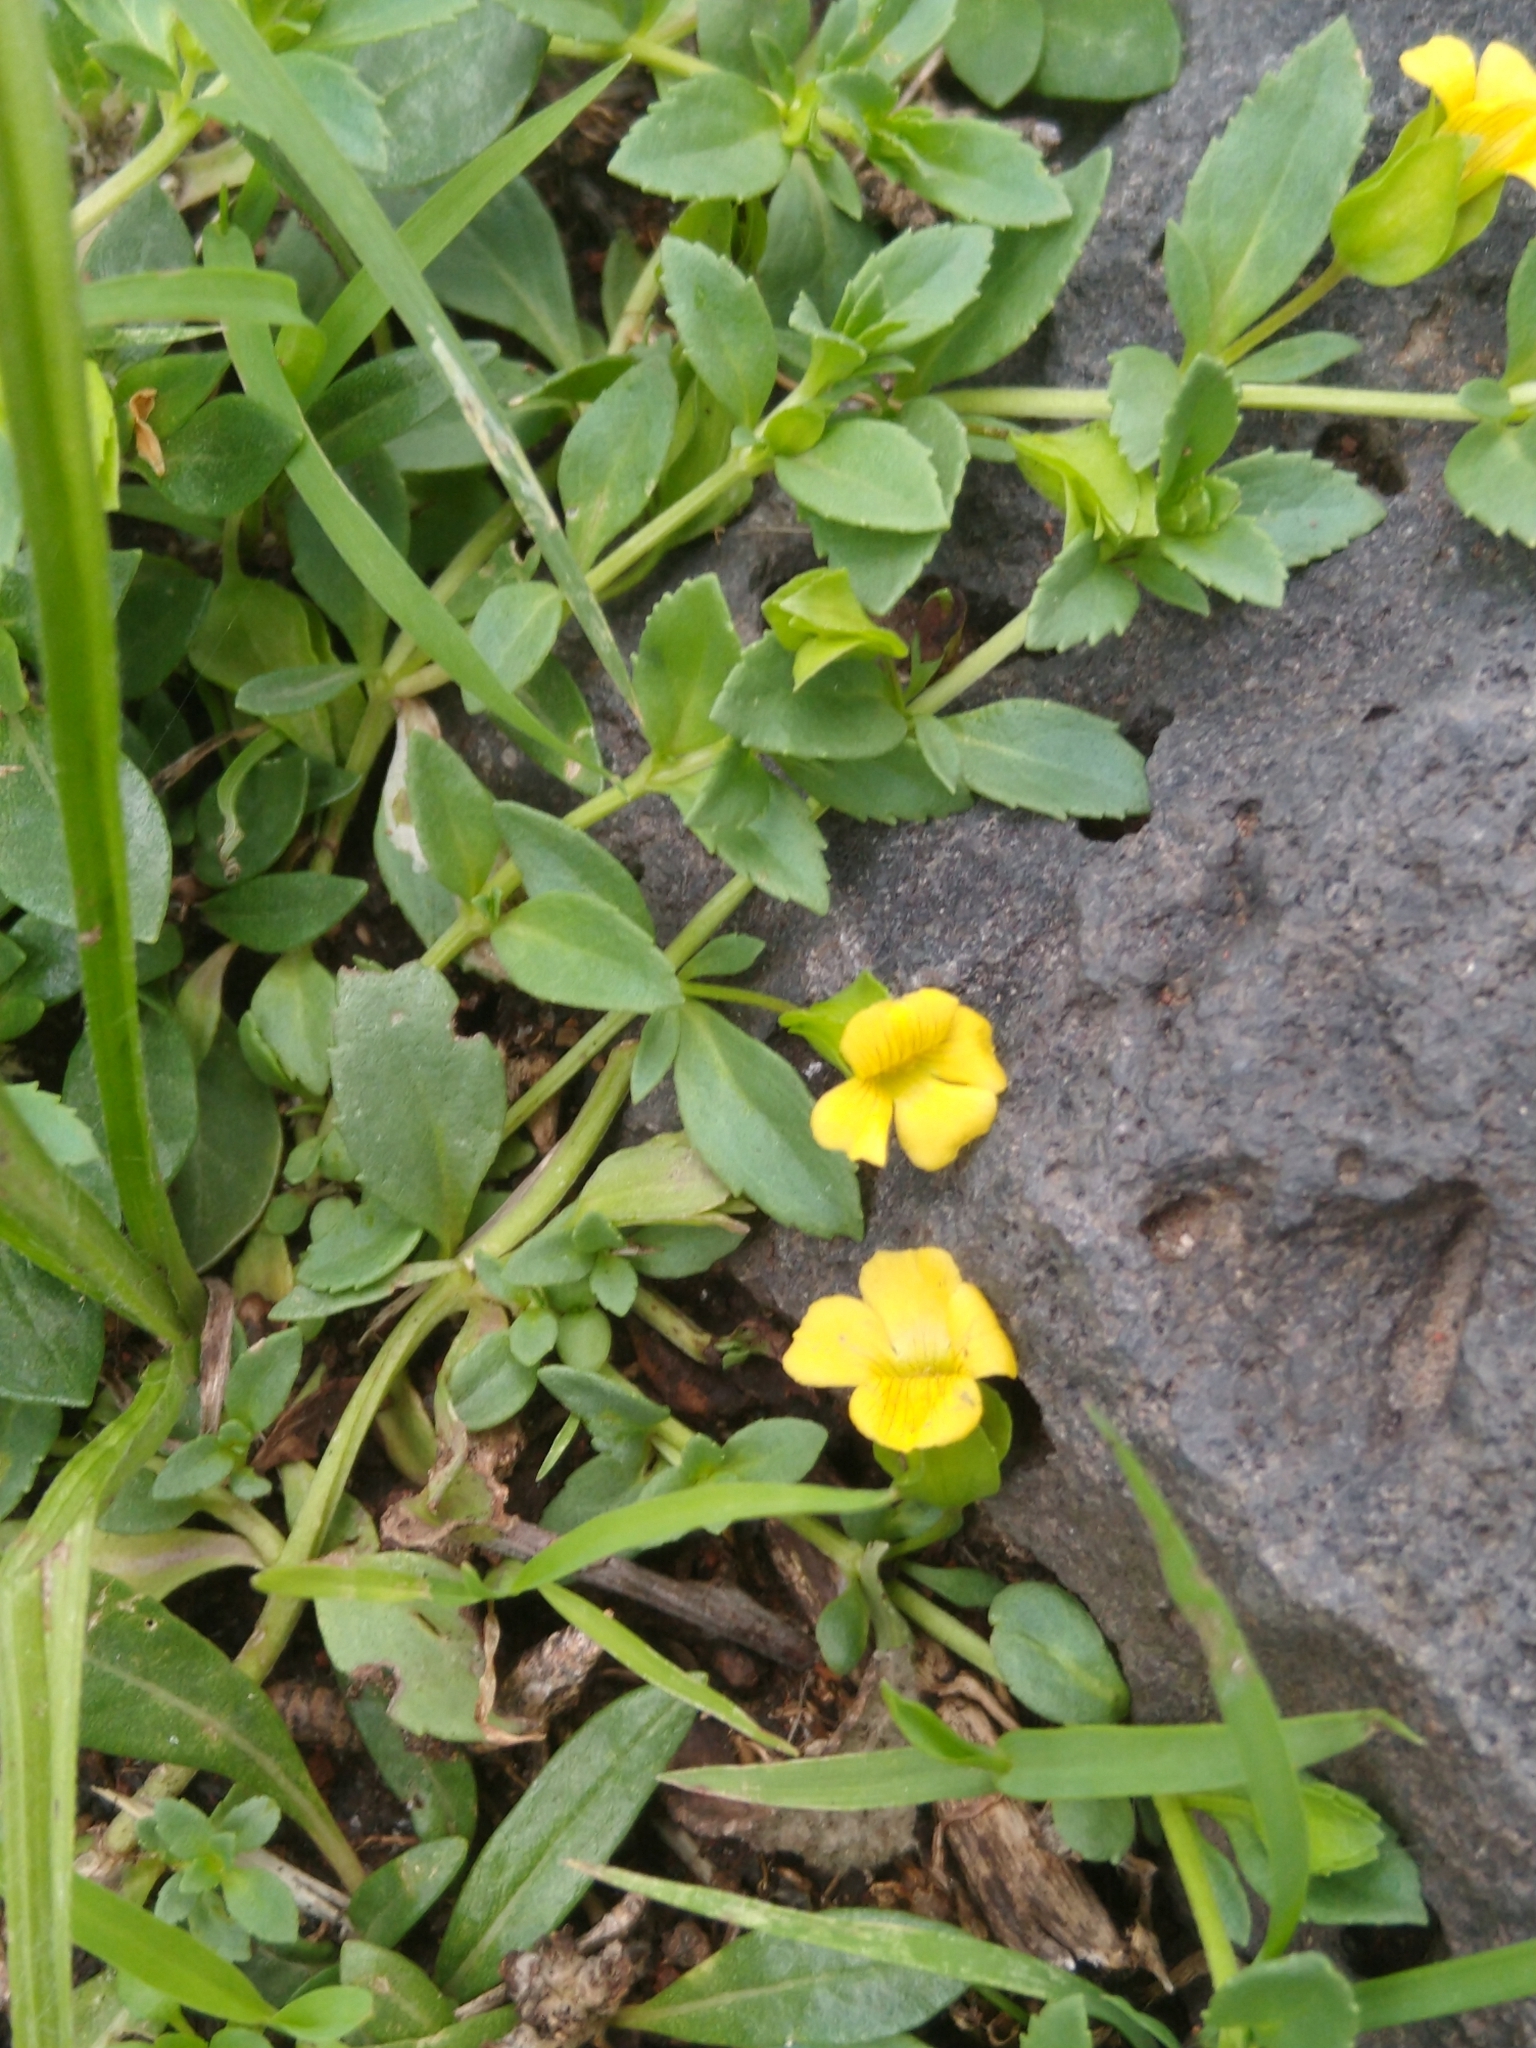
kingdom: Plantae
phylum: Tracheophyta
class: Magnoliopsida
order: Lamiales
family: Plantaginaceae
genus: Mecardonia
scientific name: Mecardonia procumbens
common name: Baby jump-up
